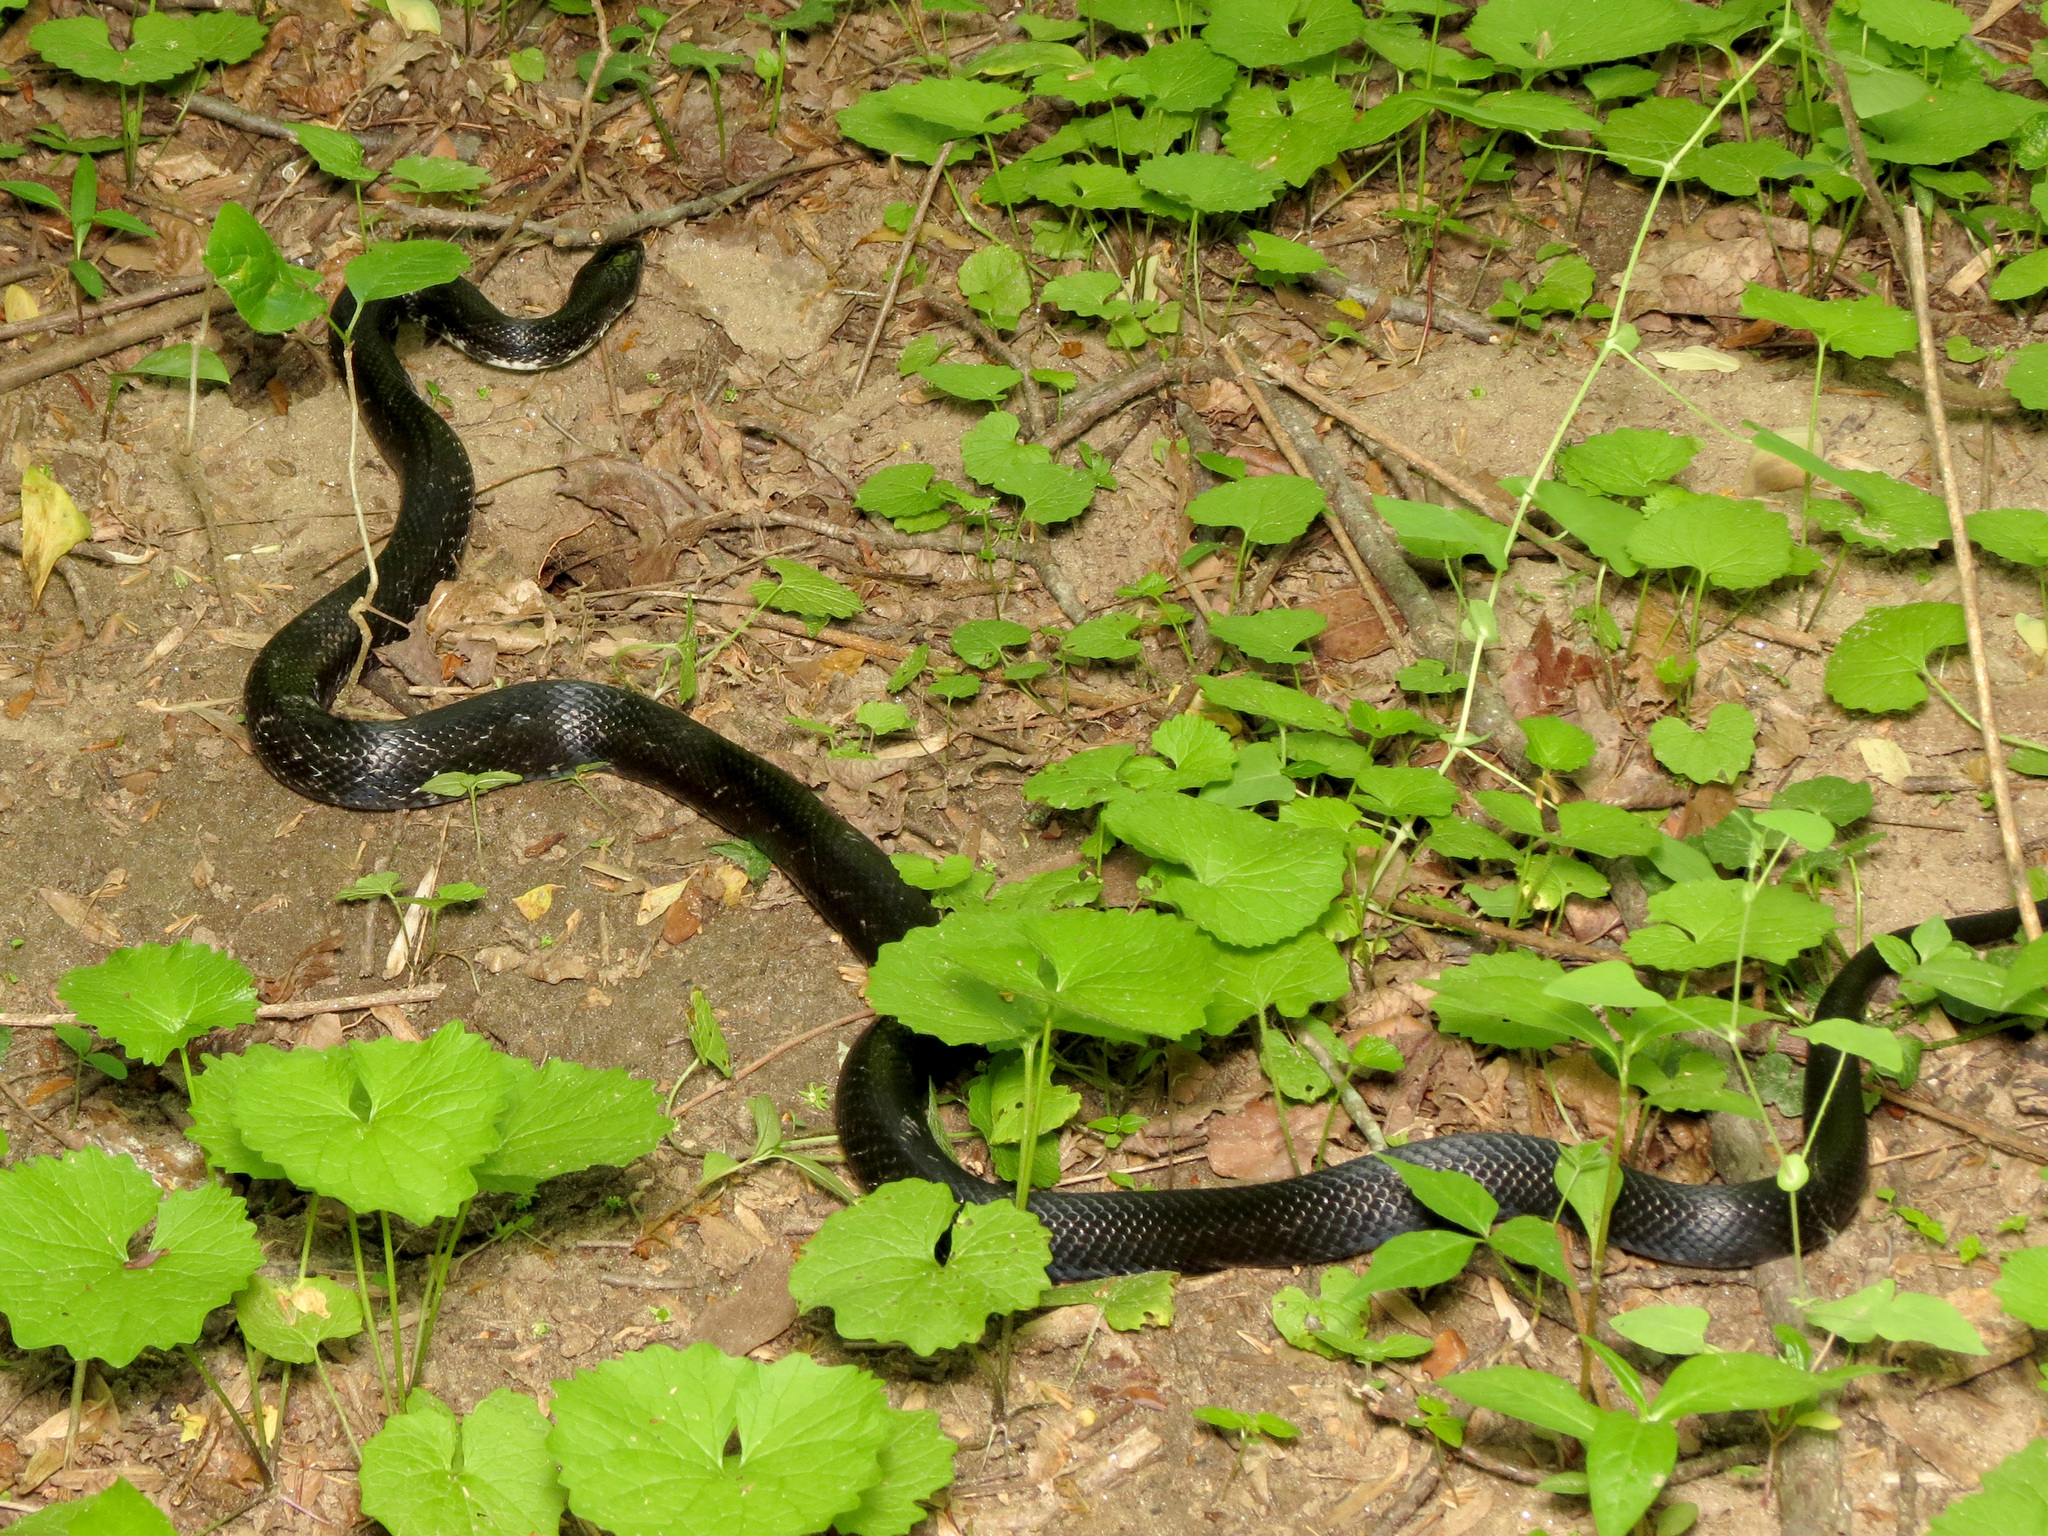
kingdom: Animalia
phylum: Chordata
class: Squamata
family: Colubridae
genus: Pantherophis
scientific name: Pantherophis alleghaniensis
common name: Eastern rat snake
